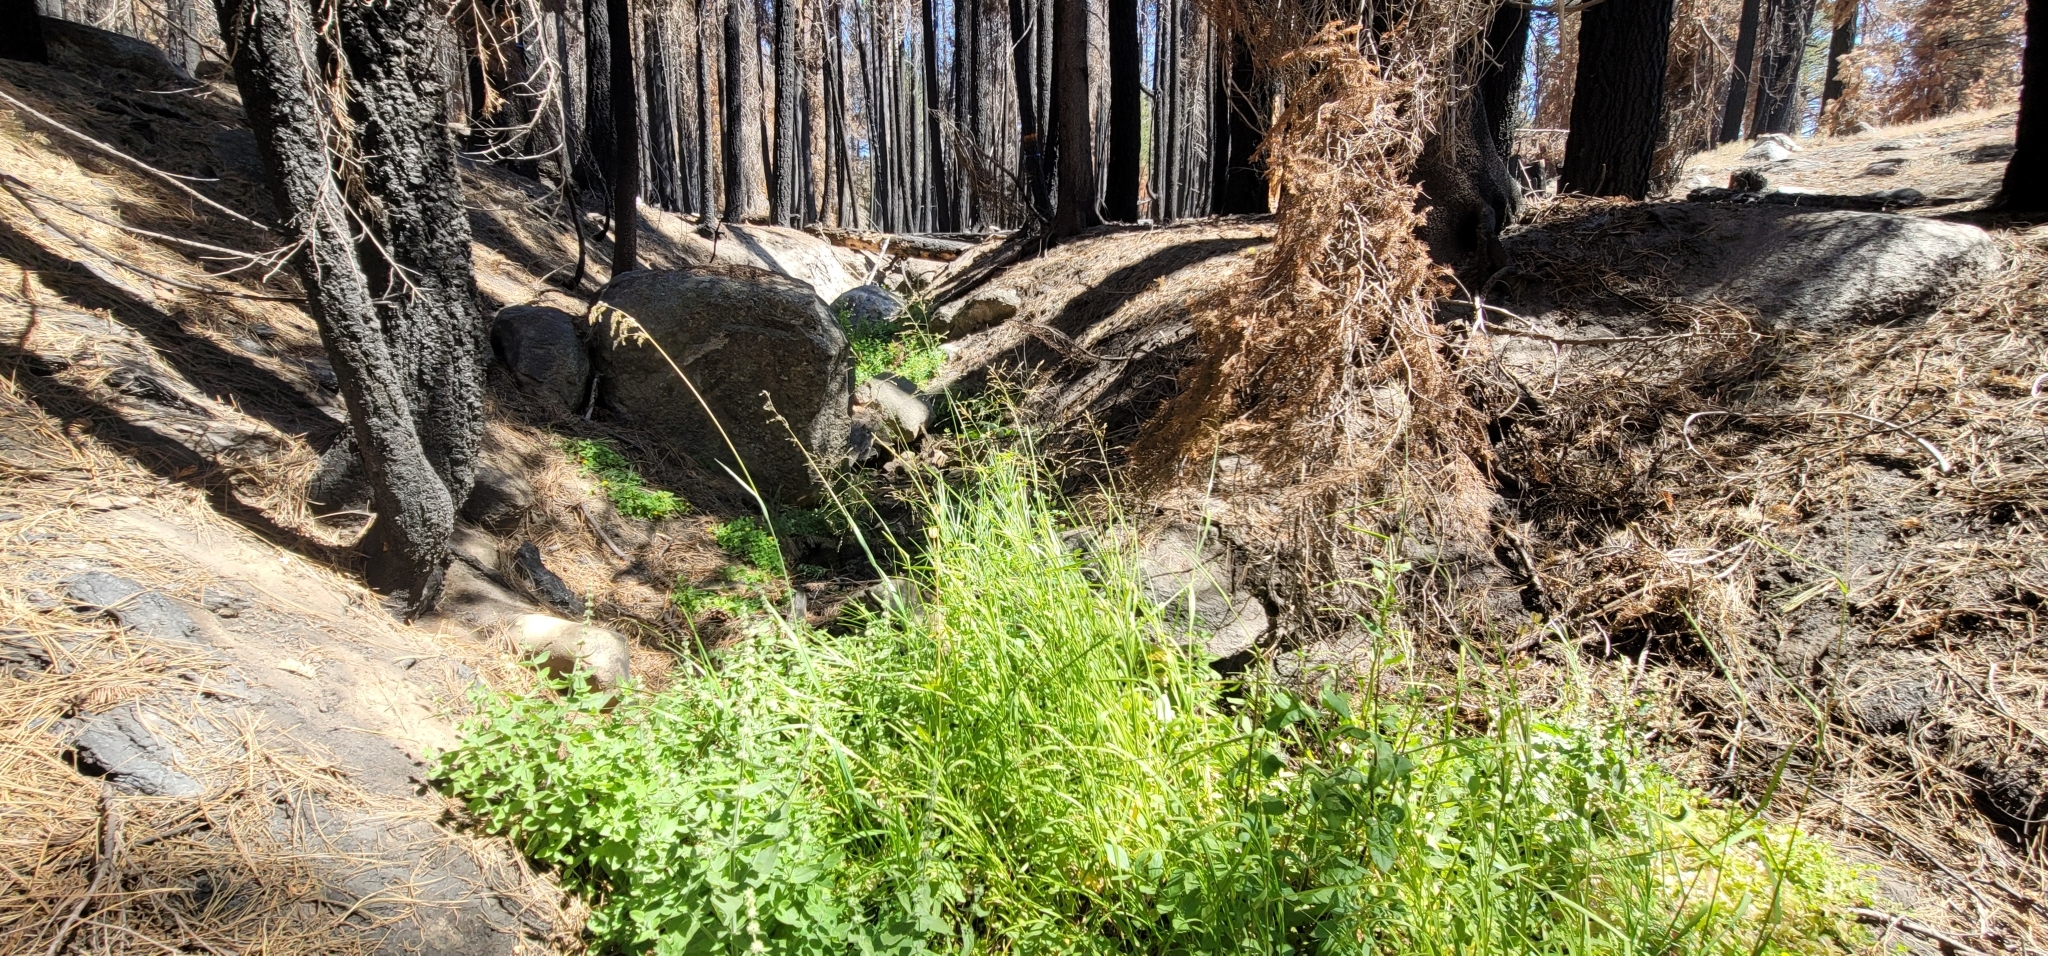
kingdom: Plantae
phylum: Tracheophyta
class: Liliopsida
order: Poales
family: Poaceae
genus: Cinna
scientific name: Cinna bolanderi
